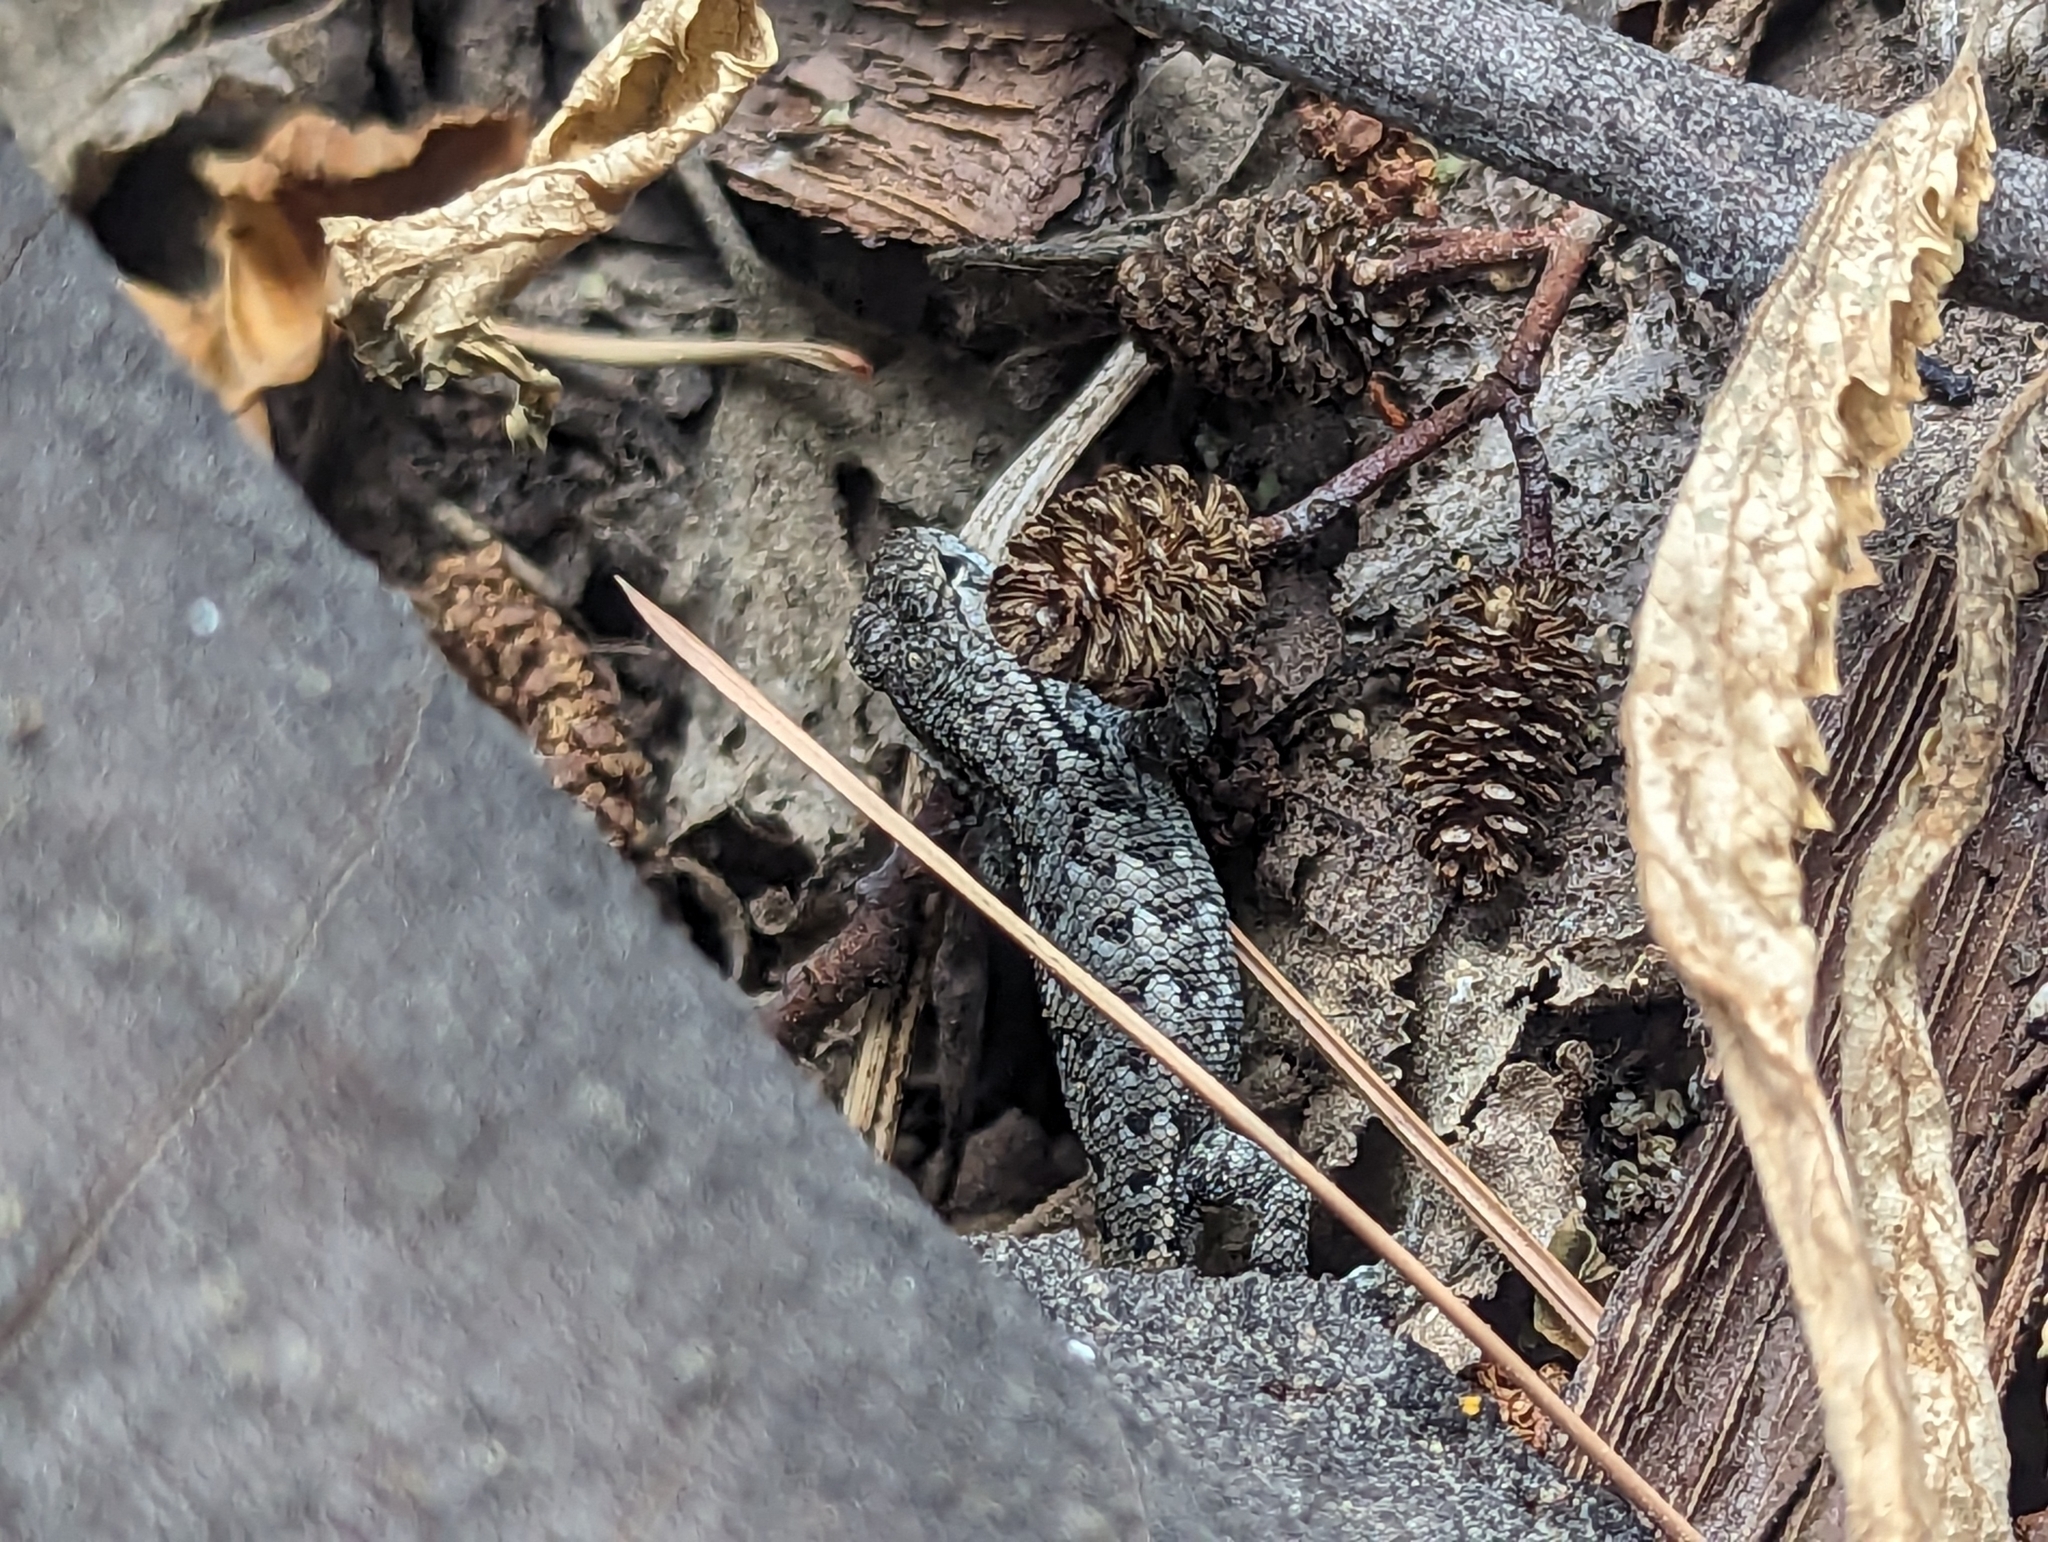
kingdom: Animalia
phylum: Chordata
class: Squamata
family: Phrynosomatidae
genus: Sceloporus
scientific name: Sceloporus occidentalis
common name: Western fence lizard
